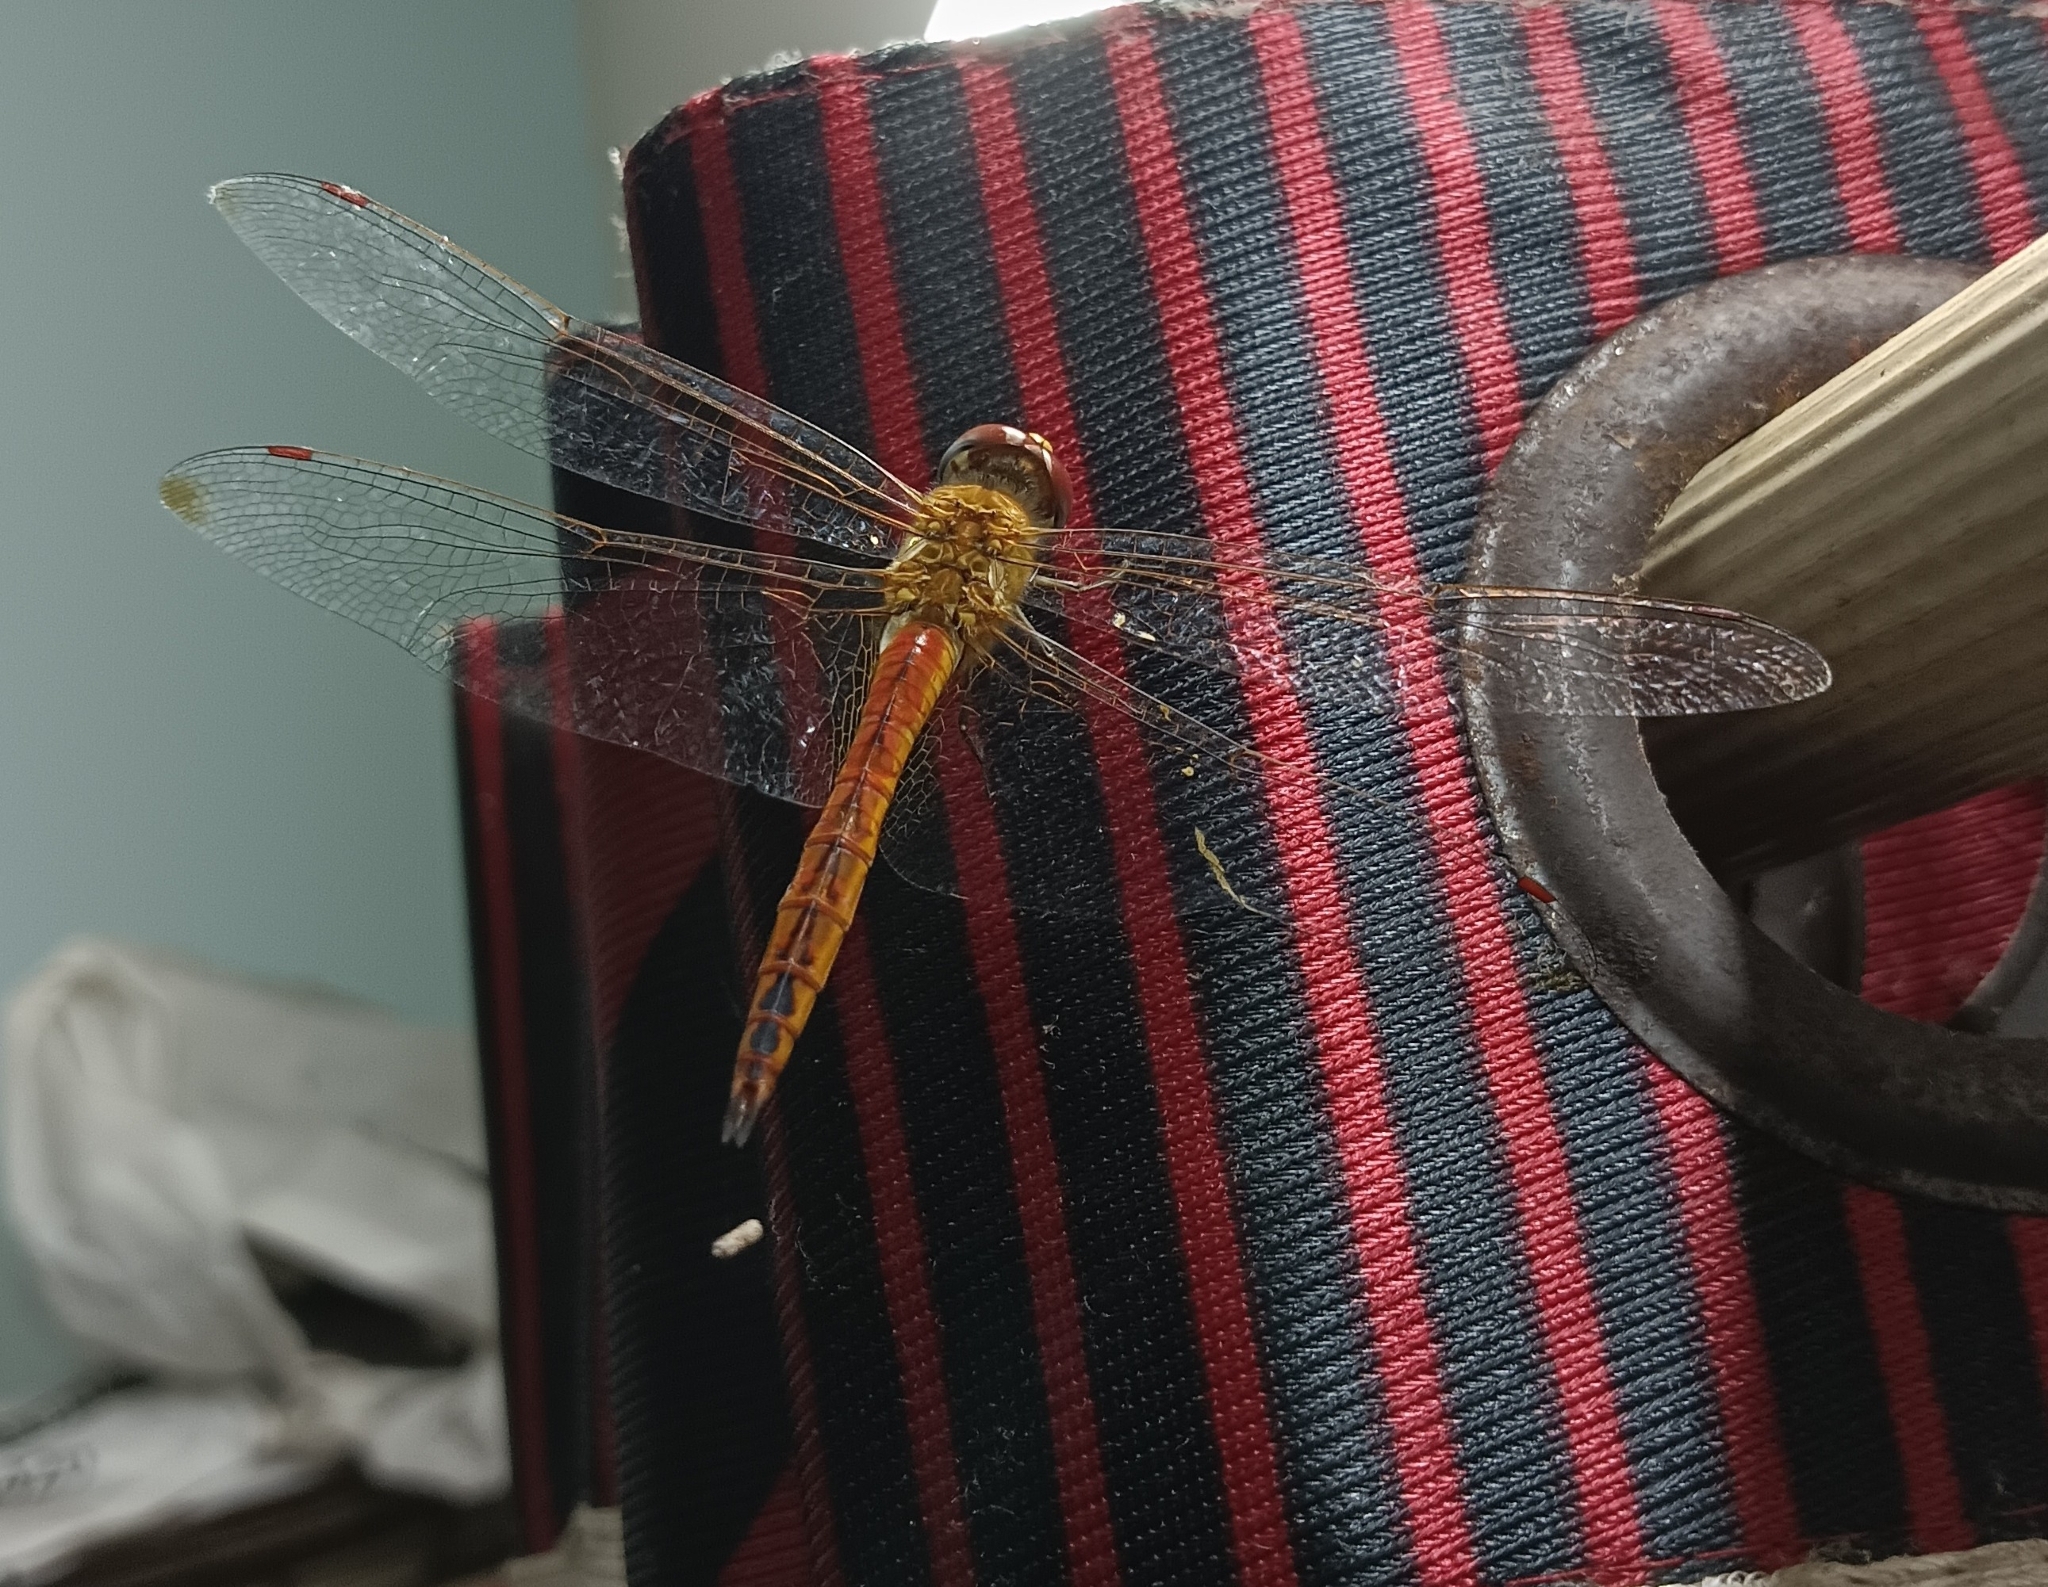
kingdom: Animalia
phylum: Arthropoda
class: Insecta
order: Odonata
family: Libellulidae
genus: Pantala
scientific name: Pantala flavescens
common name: Wandering glider
